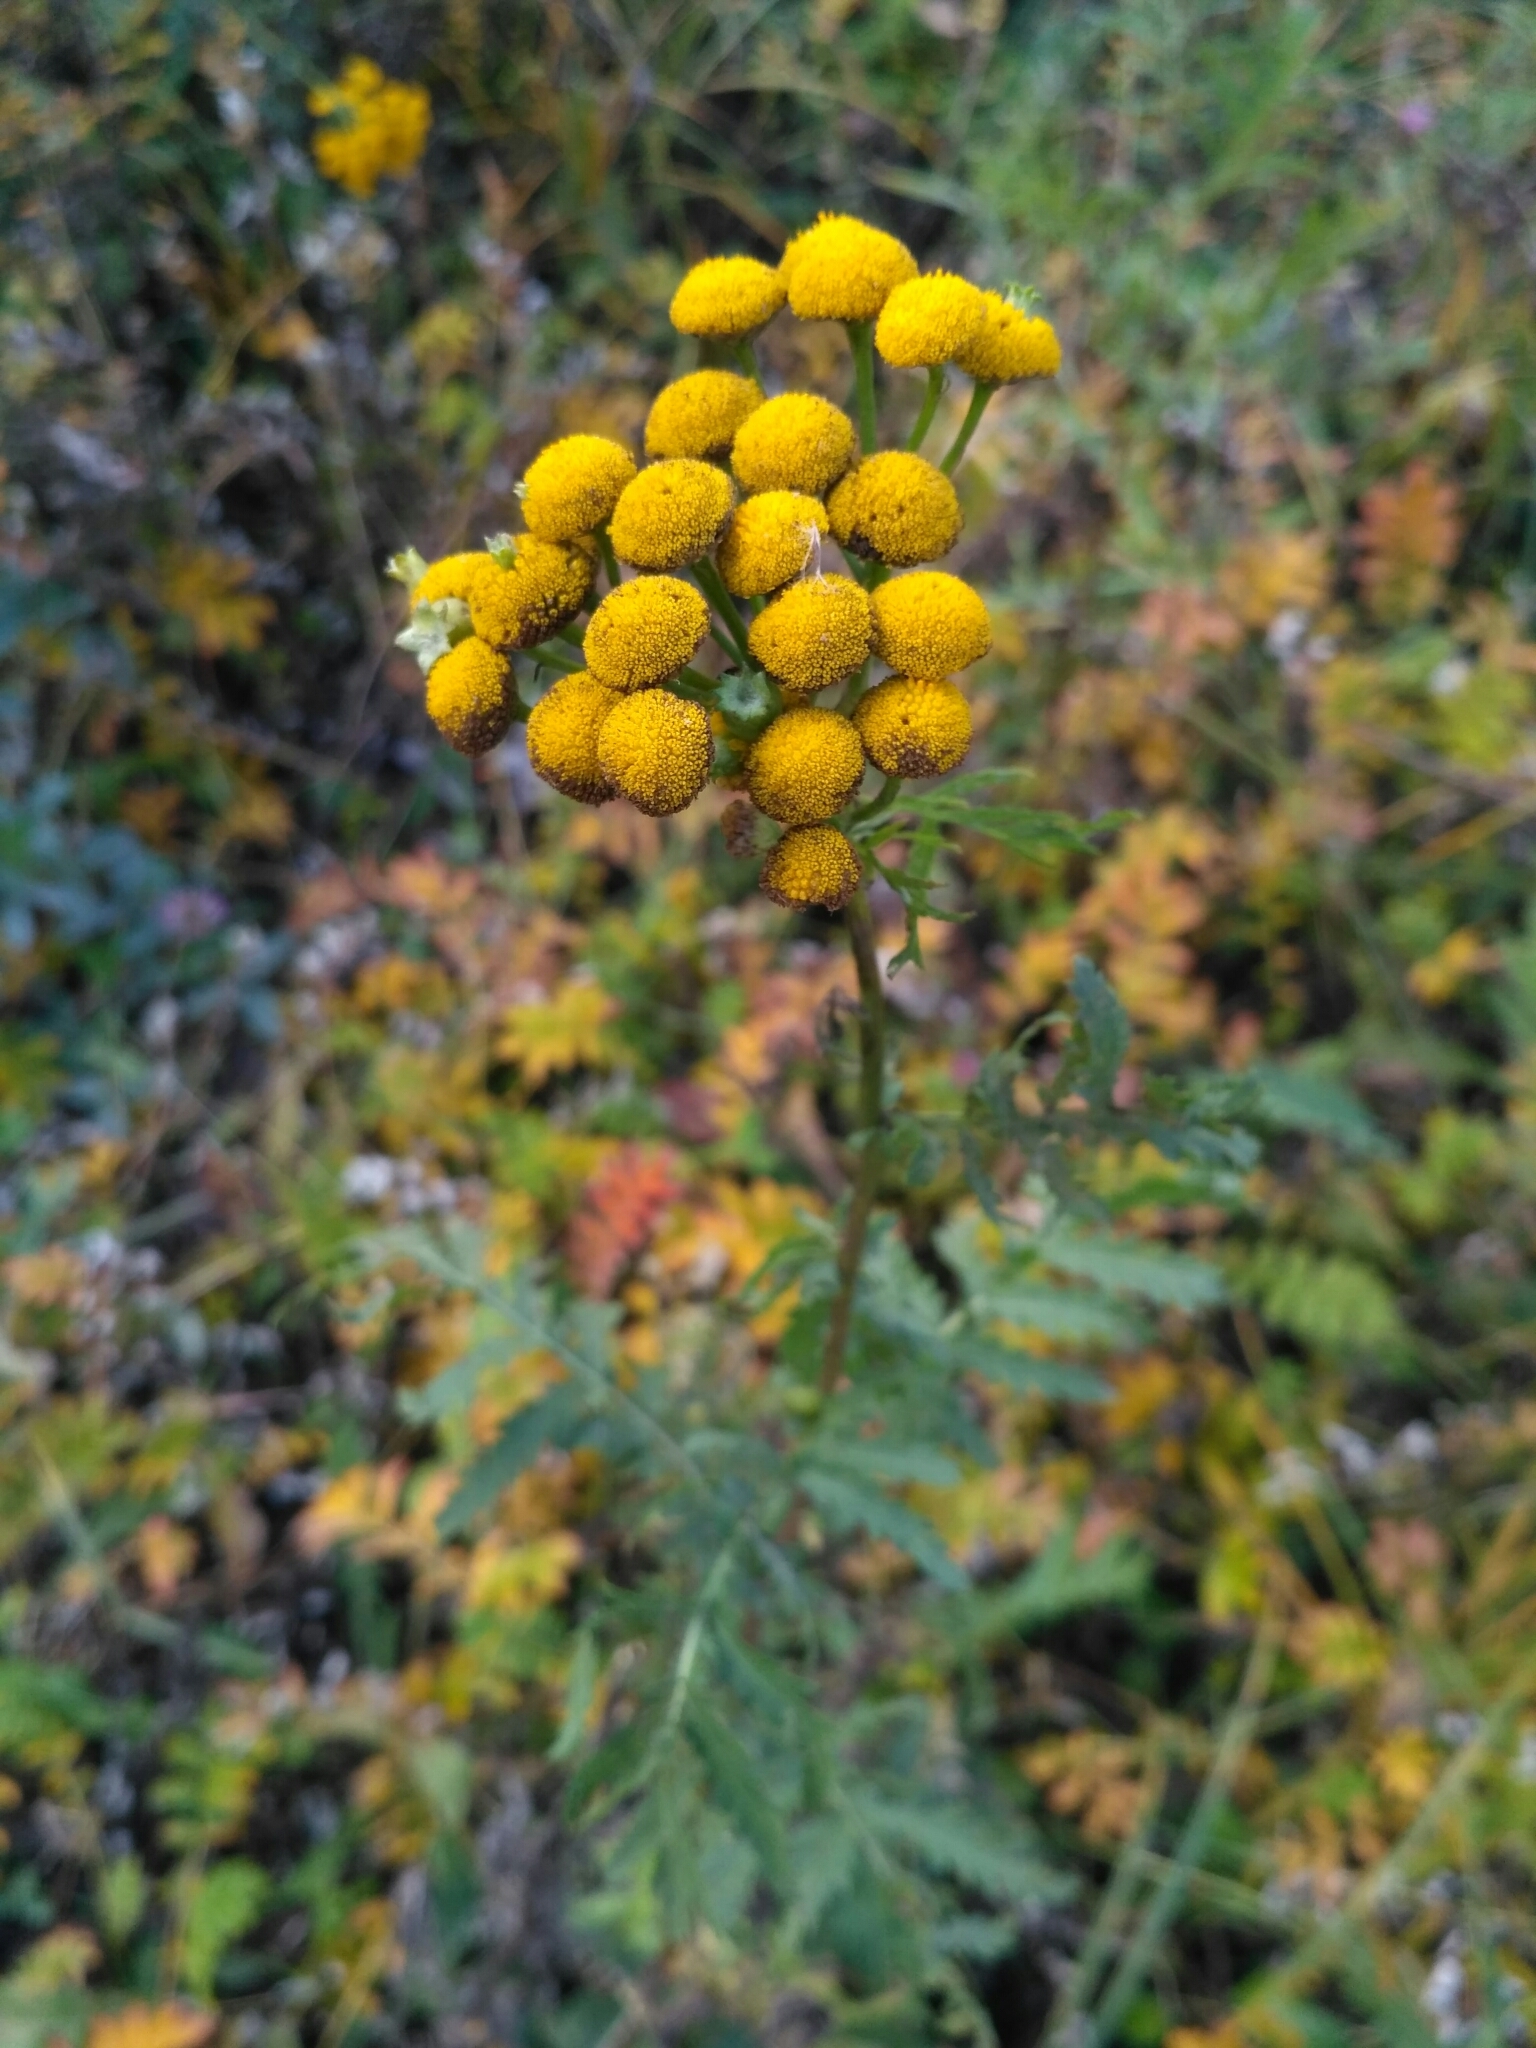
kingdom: Plantae
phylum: Tracheophyta
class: Magnoliopsida
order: Asterales
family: Asteraceae
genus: Tanacetum
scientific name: Tanacetum vulgare
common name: Common tansy
